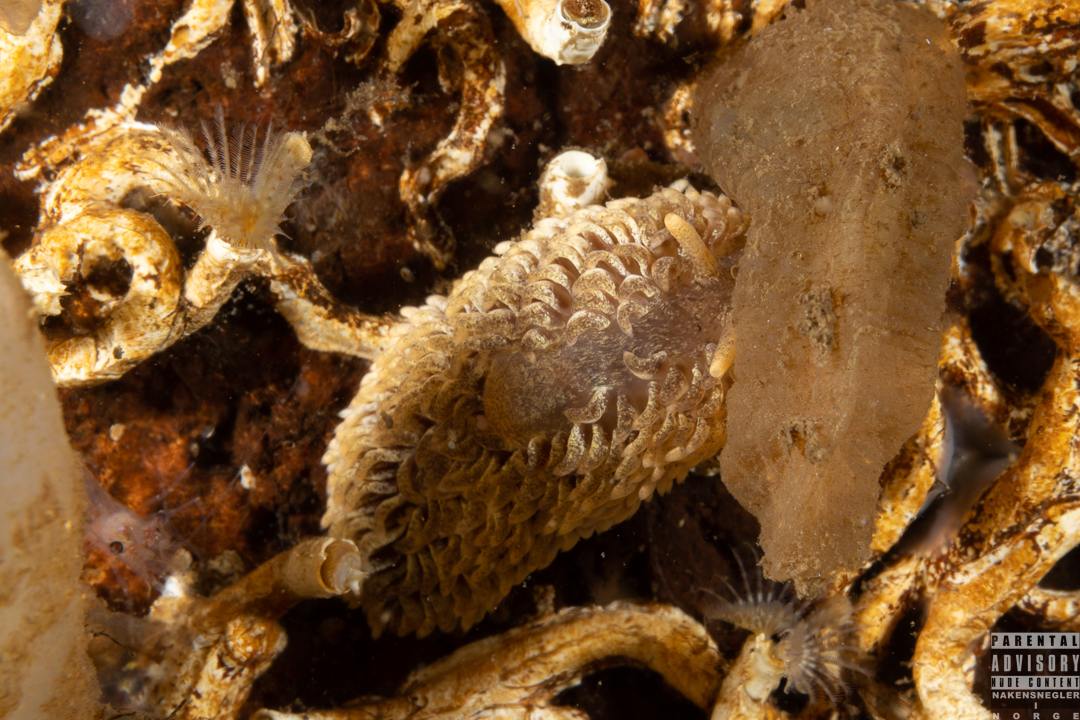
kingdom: Animalia
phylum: Mollusca
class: Gastropoda
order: Nudibranchia
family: Aeolidiidae
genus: Aeolidia
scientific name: Aeolidia papillosa
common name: Common grey sea slug
